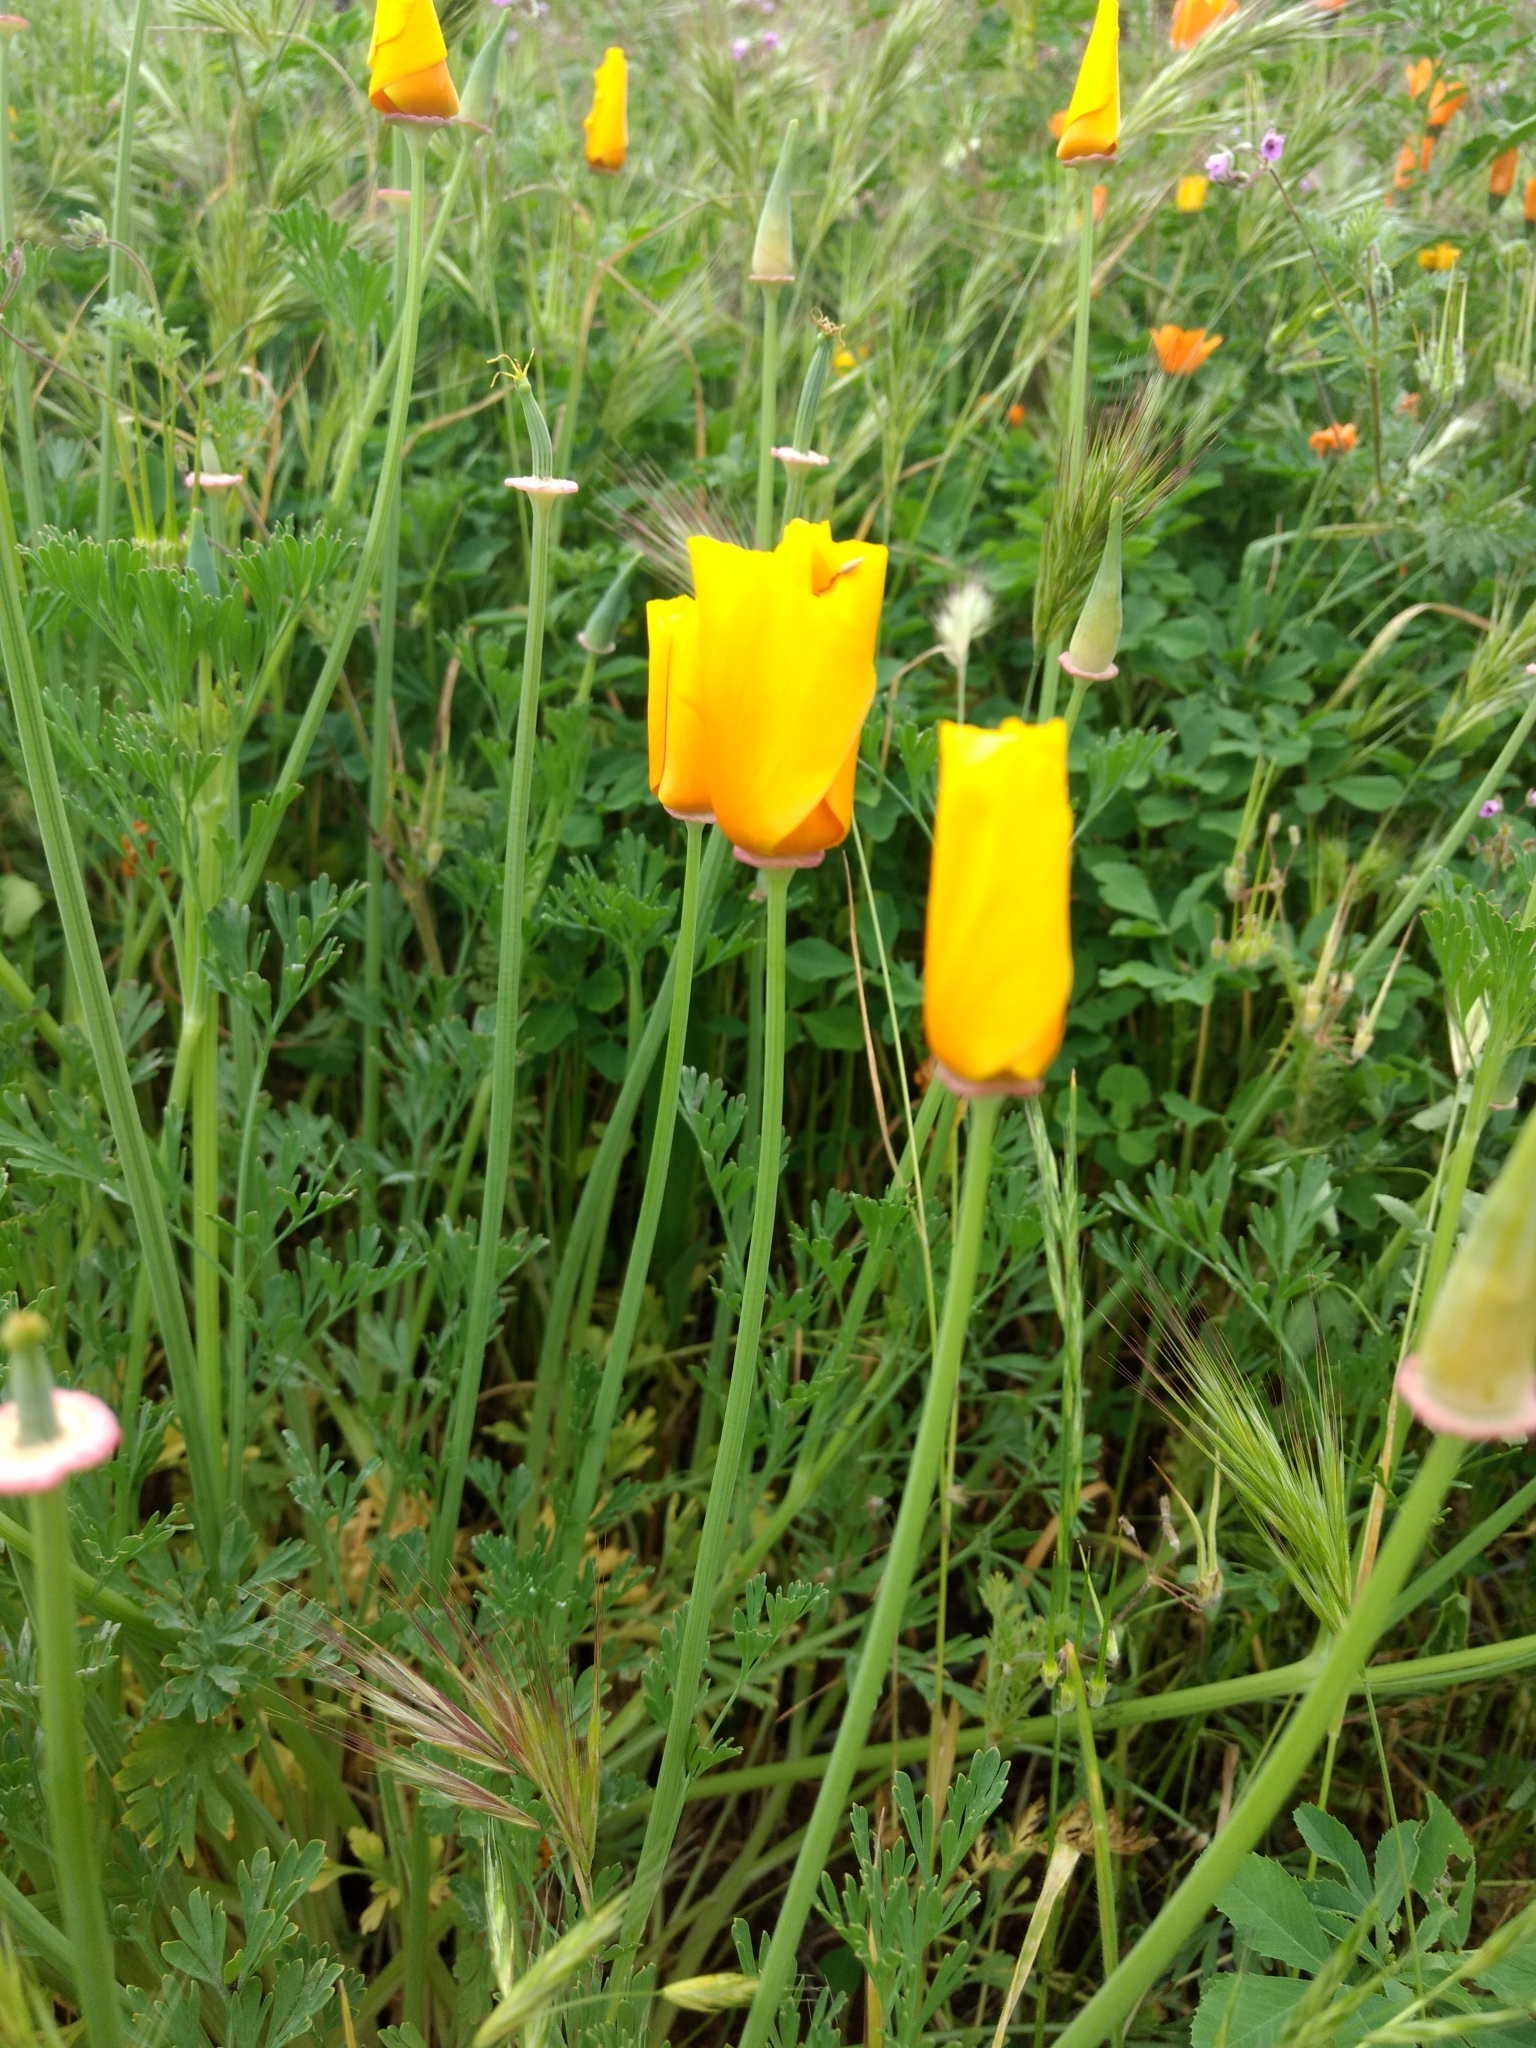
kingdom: Plantae
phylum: Tracheophyta
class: Magnoliopsida
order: Ranunculales
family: Papaveraceae
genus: Eschscholzia
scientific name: Eschscholzia californica
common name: California poppy
